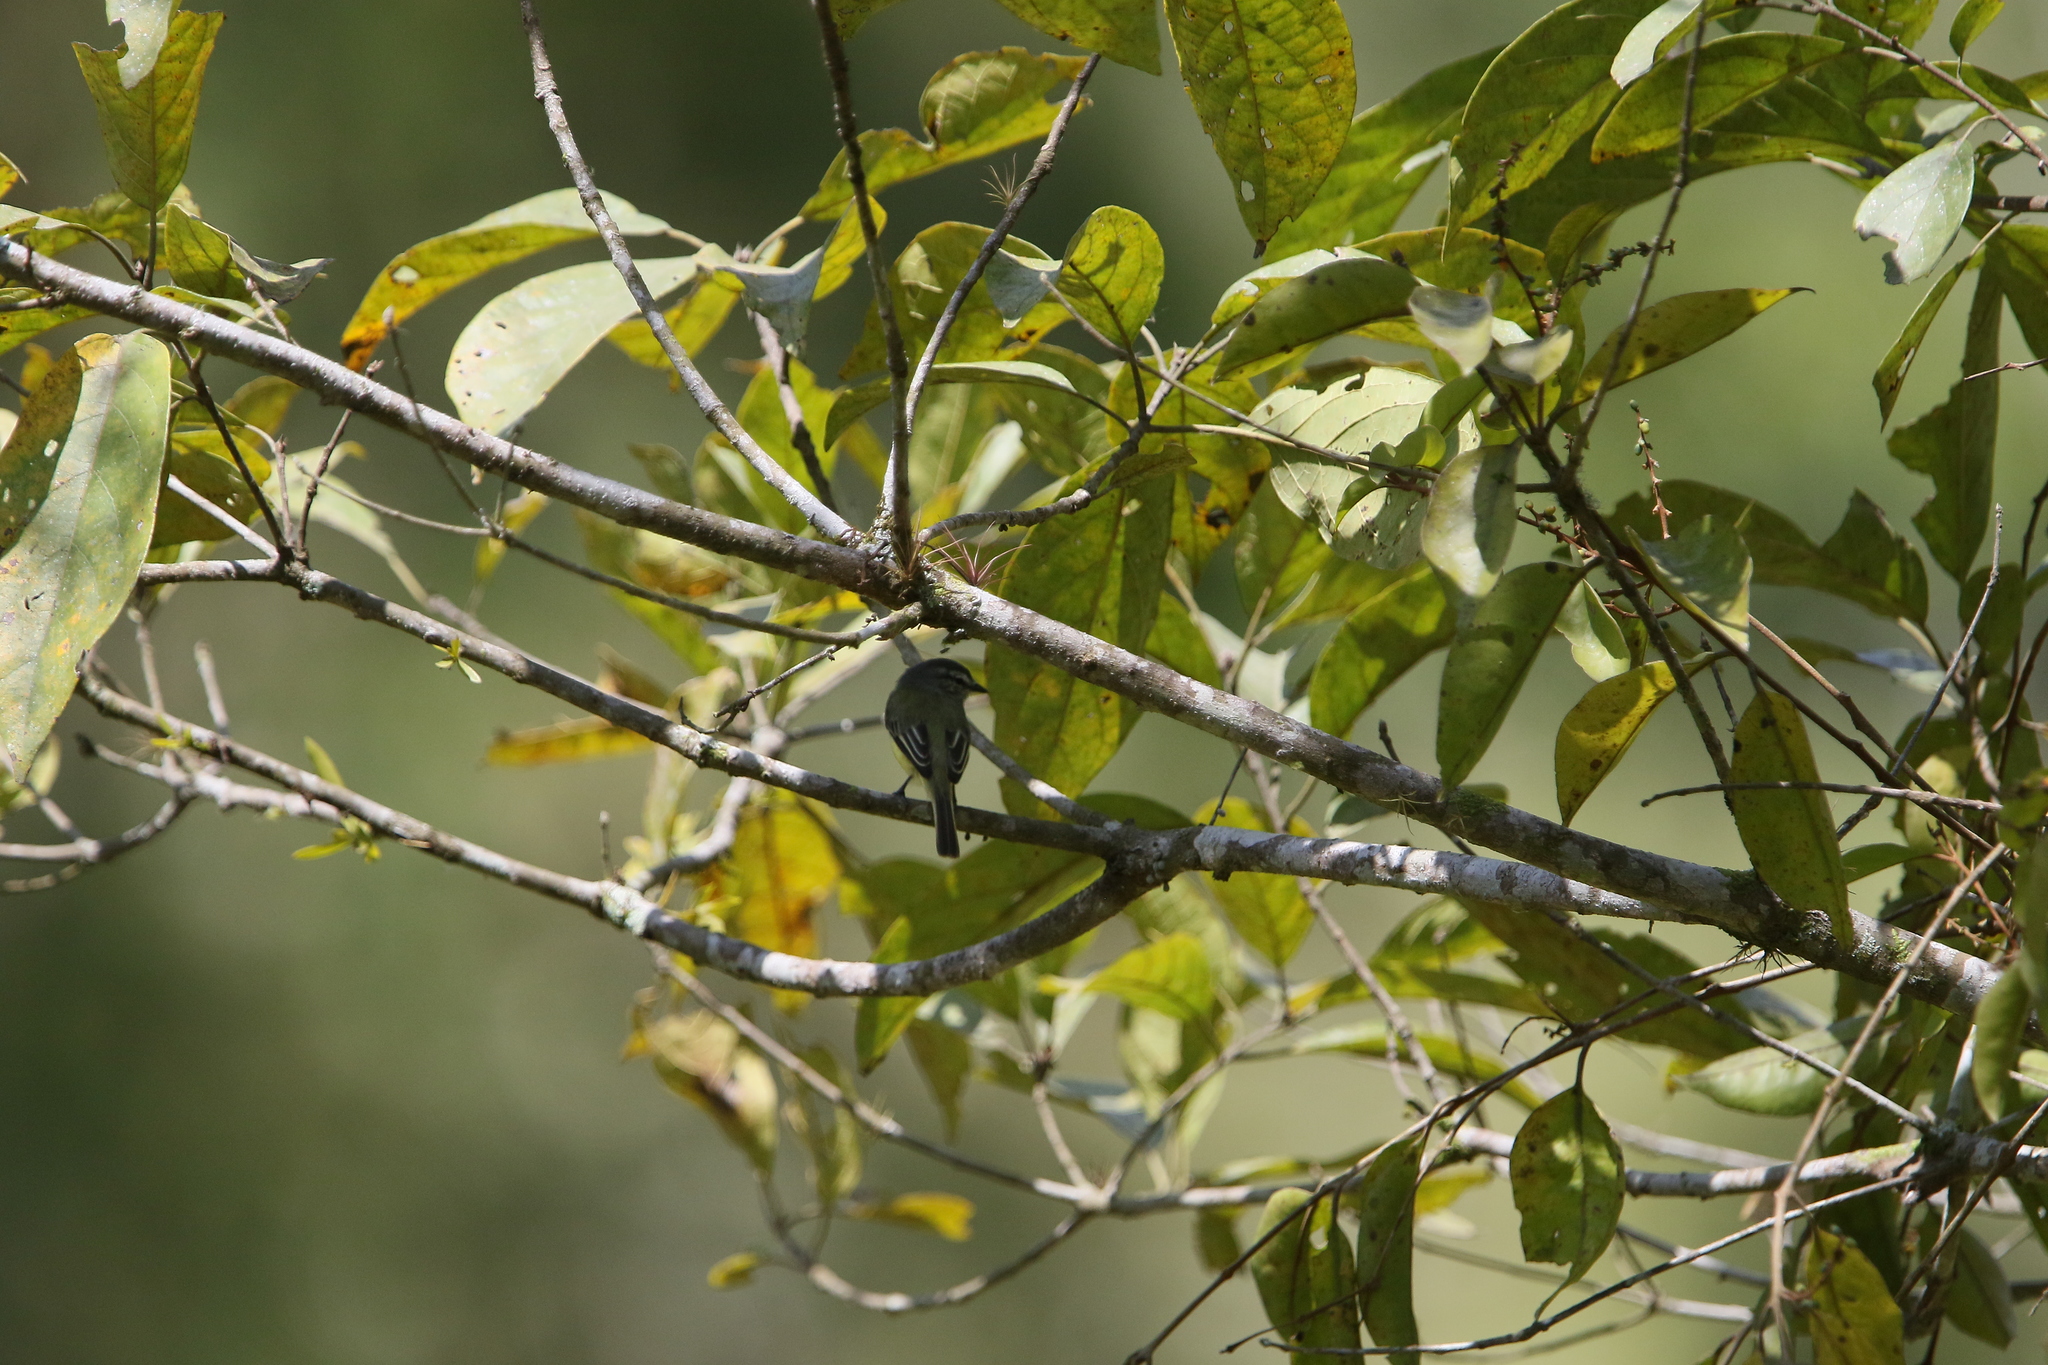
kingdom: Animalia
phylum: Chordata
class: Aves
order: Passeriformes
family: Tyrannidae
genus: Phyllomyias
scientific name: Phyllomyias griseiceps
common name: Sooty-headed tyrannulet
